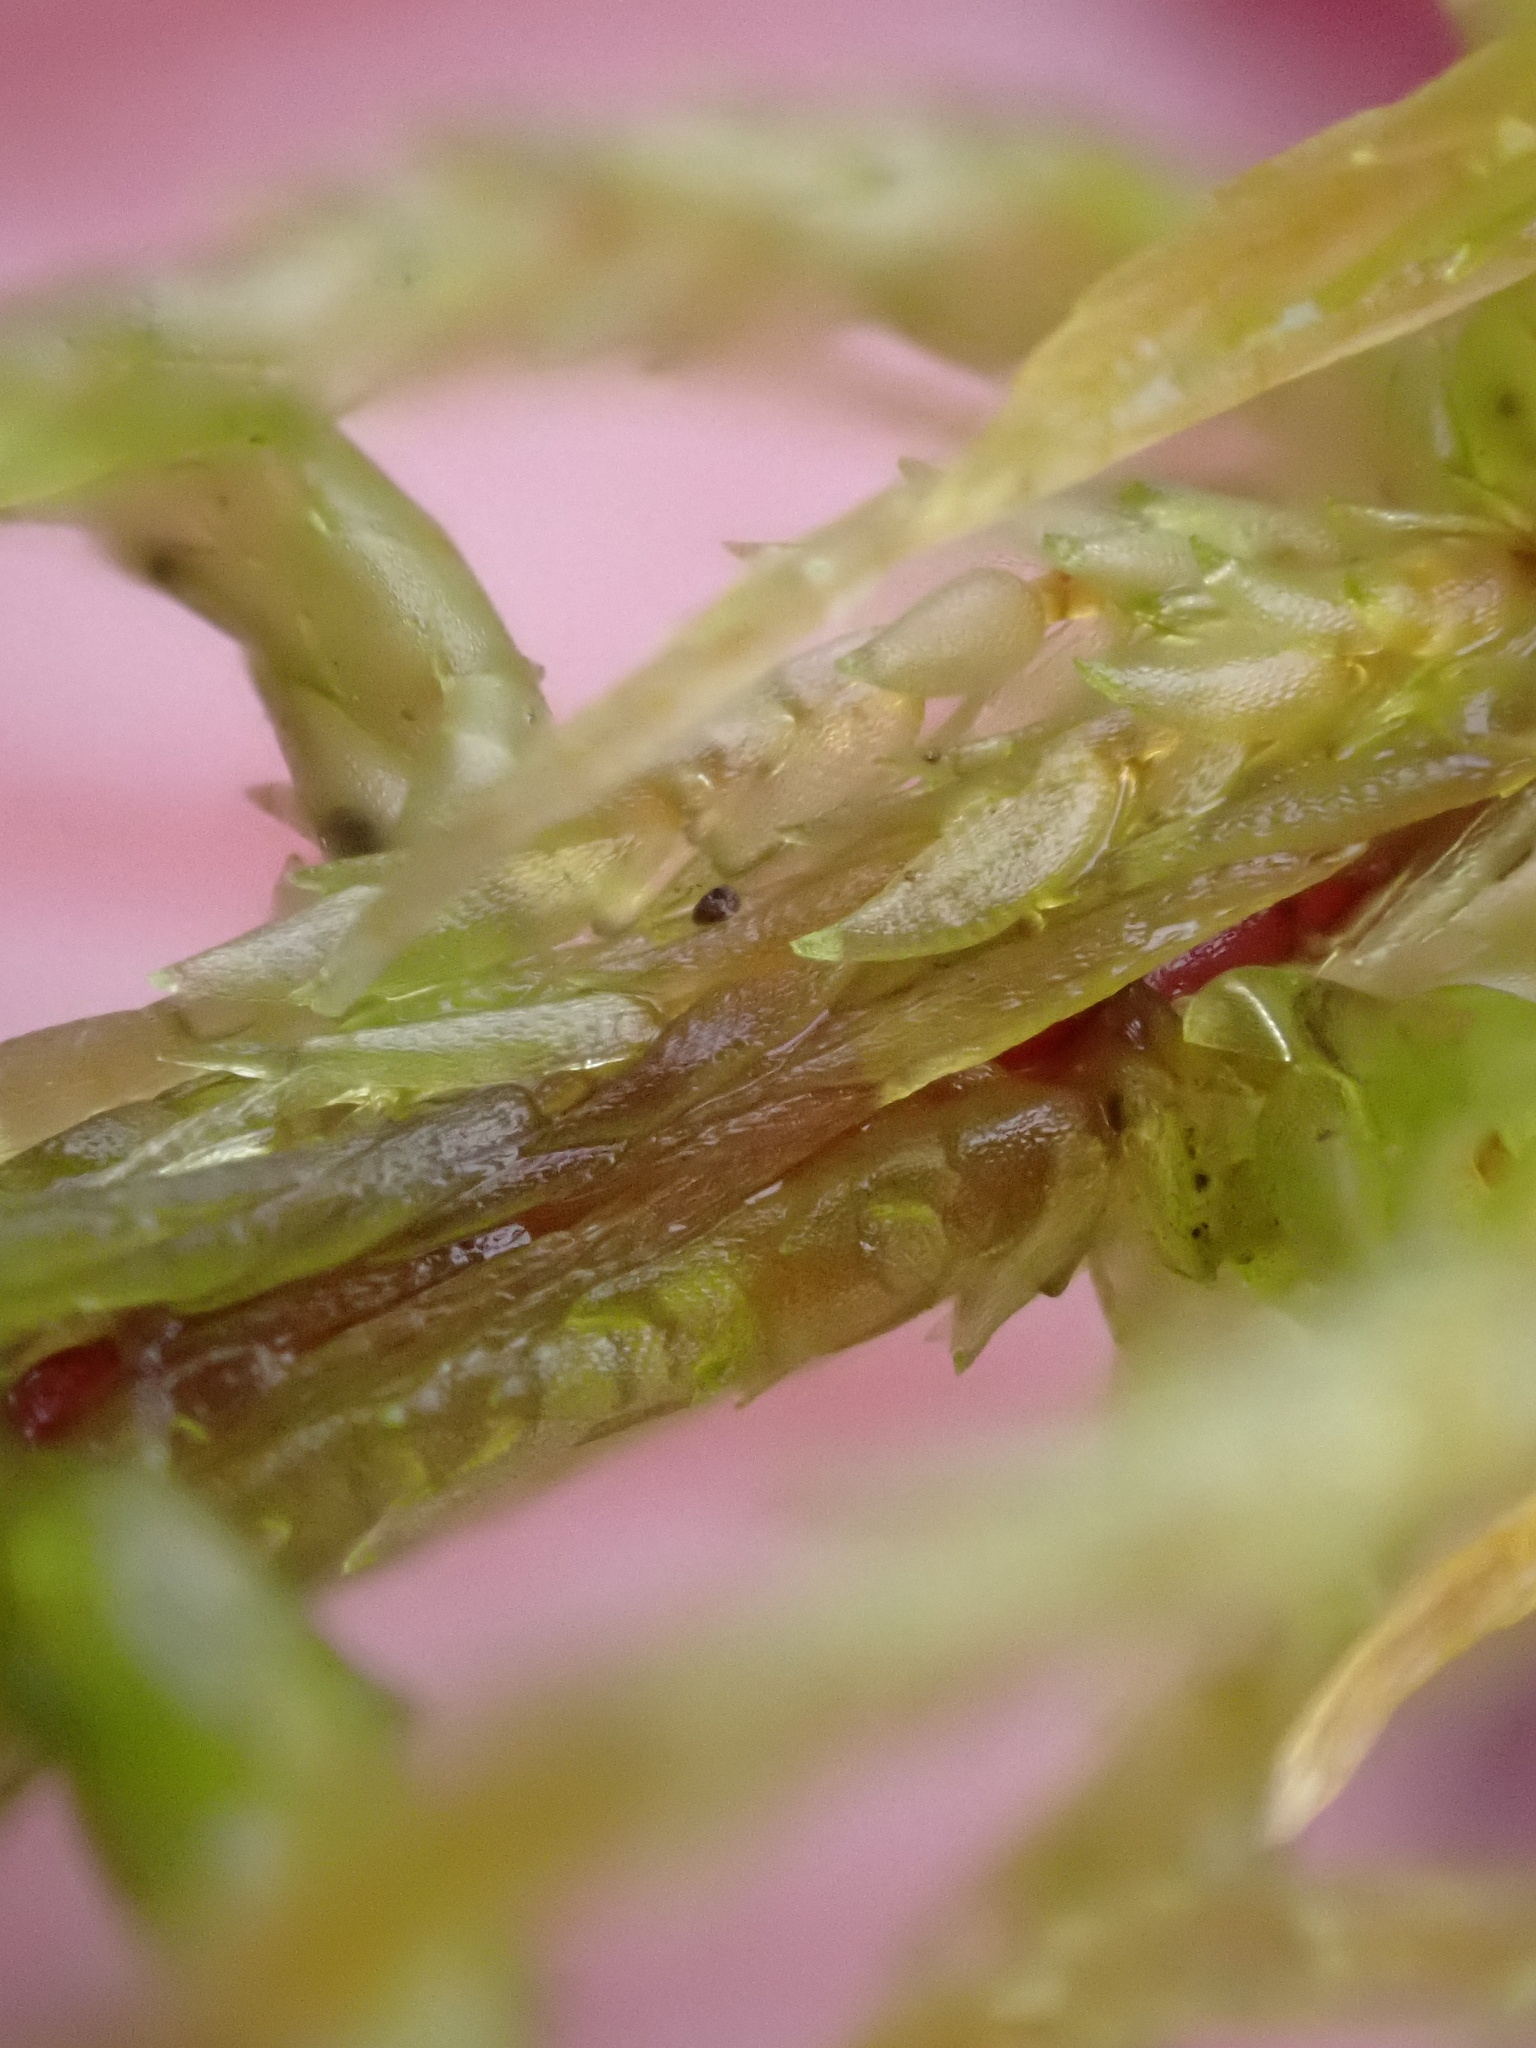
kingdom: Plantae
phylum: Bryophyta
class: Sphagnopsida
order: Sphagnales
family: Sphagnaceae
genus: Sphagnum
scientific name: Sphagnum inundatum
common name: Lesser cow-horn bog-moss
